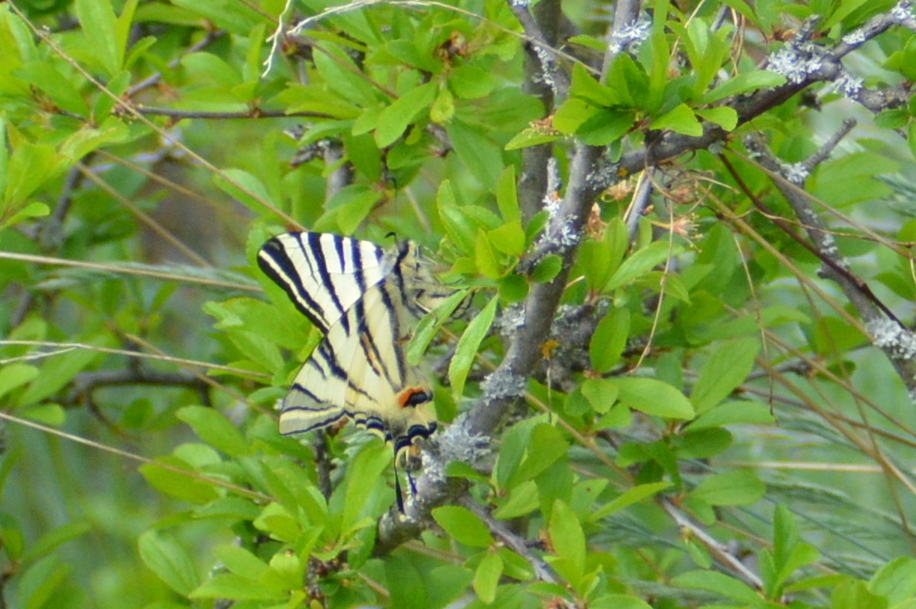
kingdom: Animalia
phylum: Arthropoda
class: Insecta
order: Lepidoptera
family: Papilionidae
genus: Iphiclides
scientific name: Iphiclides podalirius
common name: Scarce swallowtail
